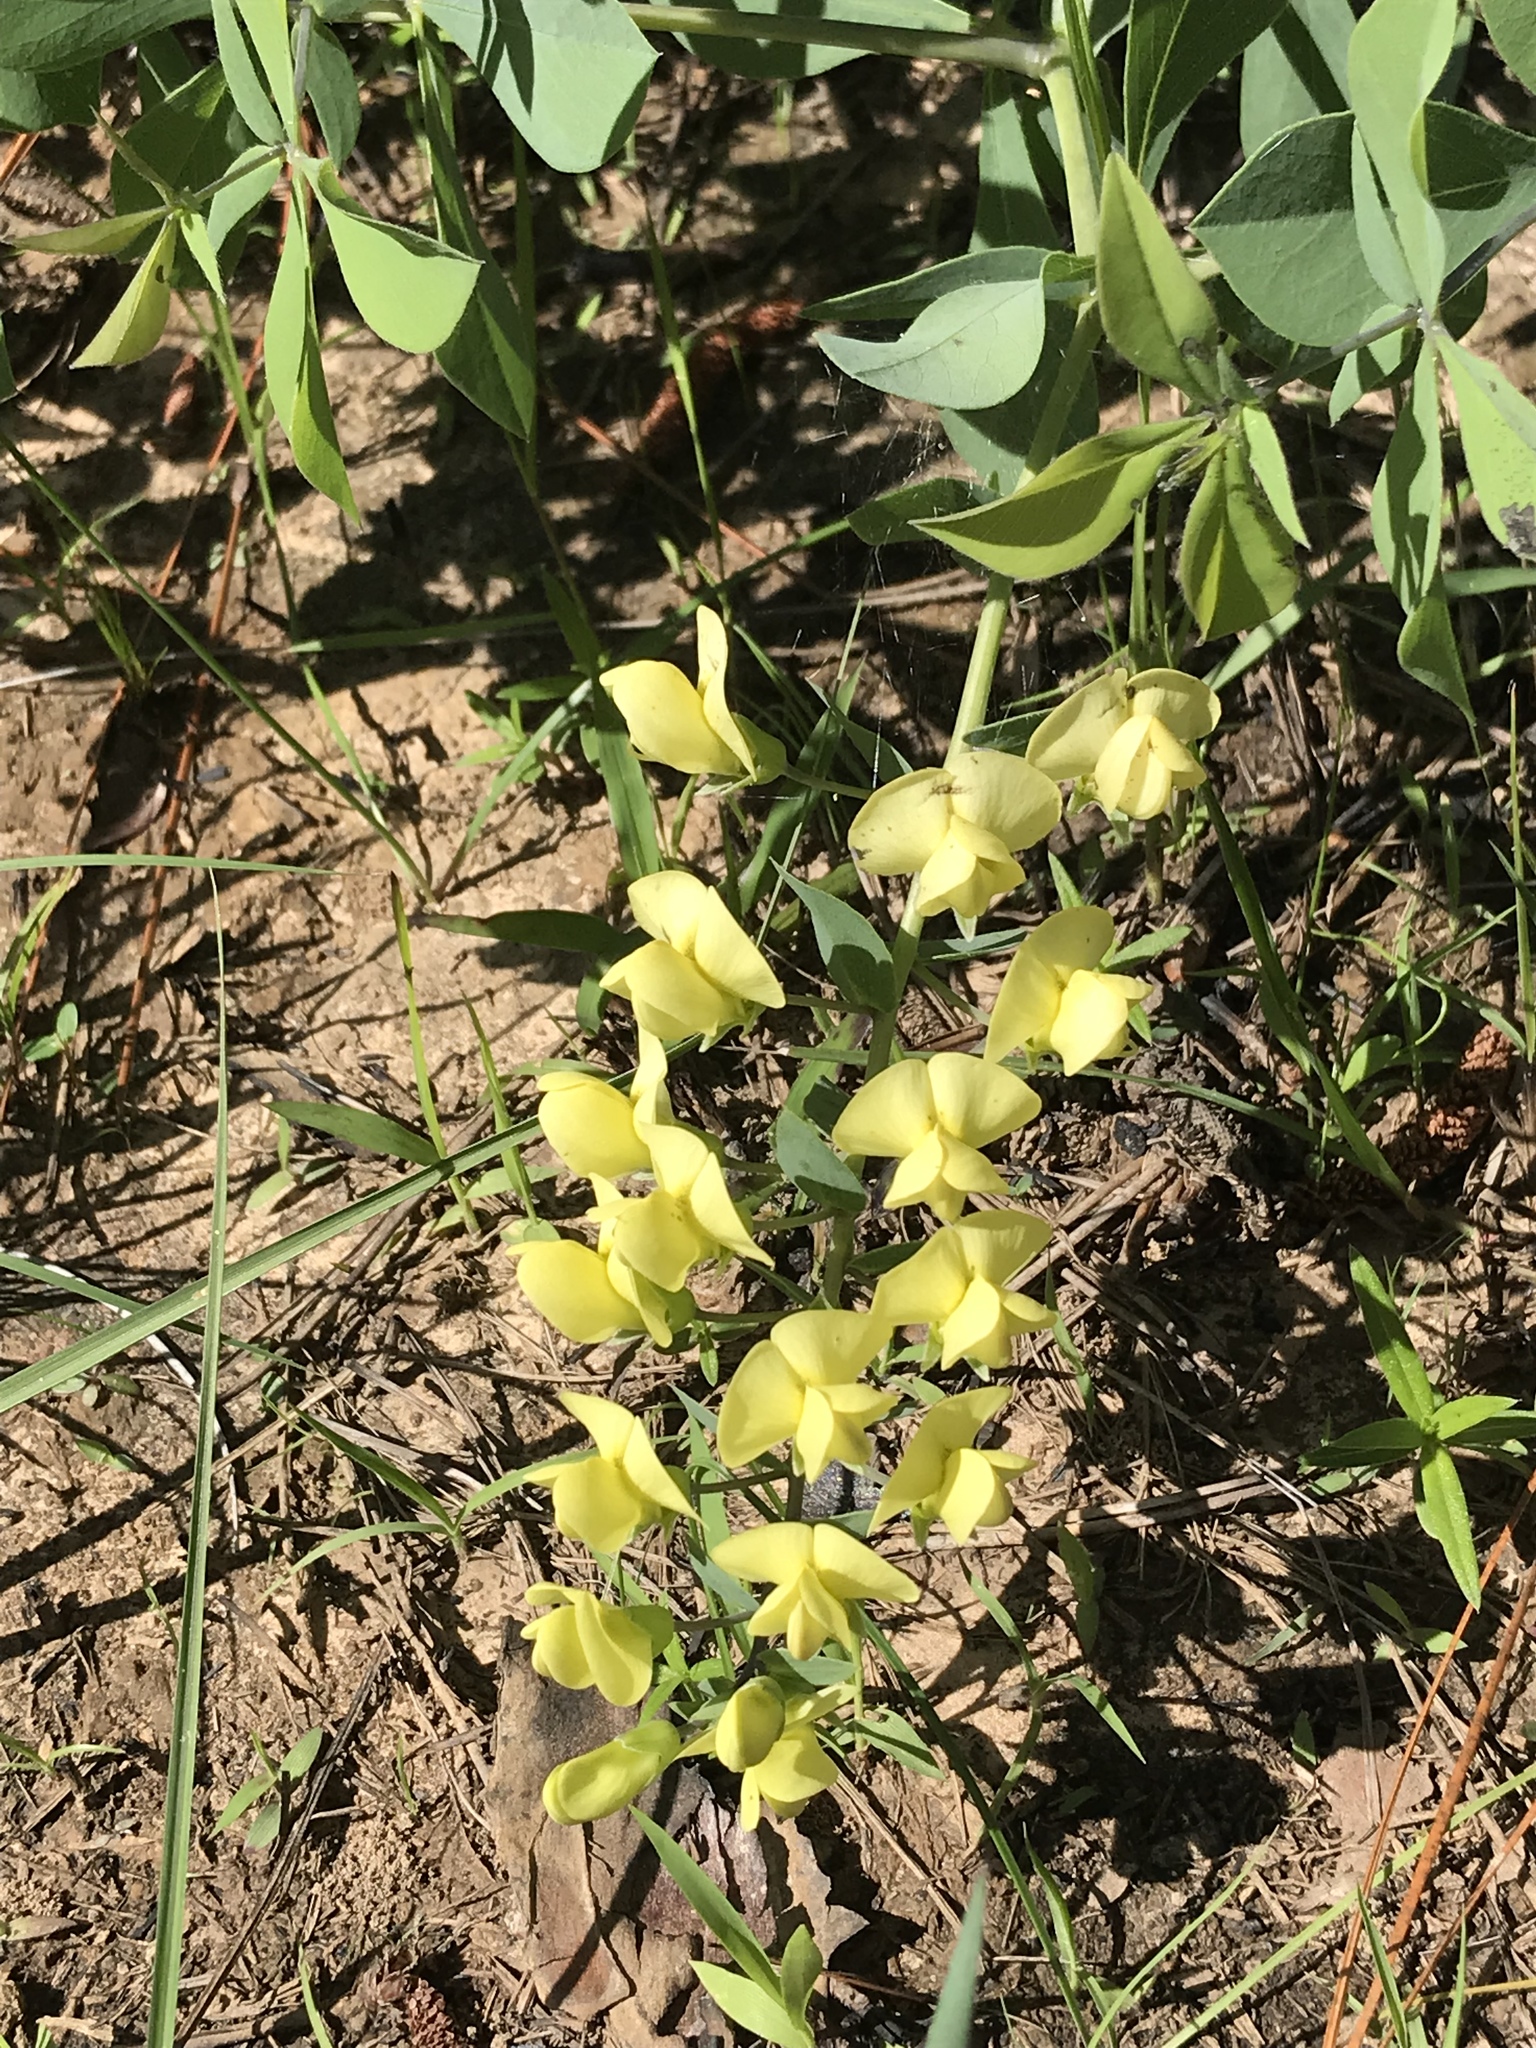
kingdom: Plantae
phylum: Tracheophyta
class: Magnoliopsida
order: Fabales
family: Fabaceae
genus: Baptisia
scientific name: Baptisia bracteata
